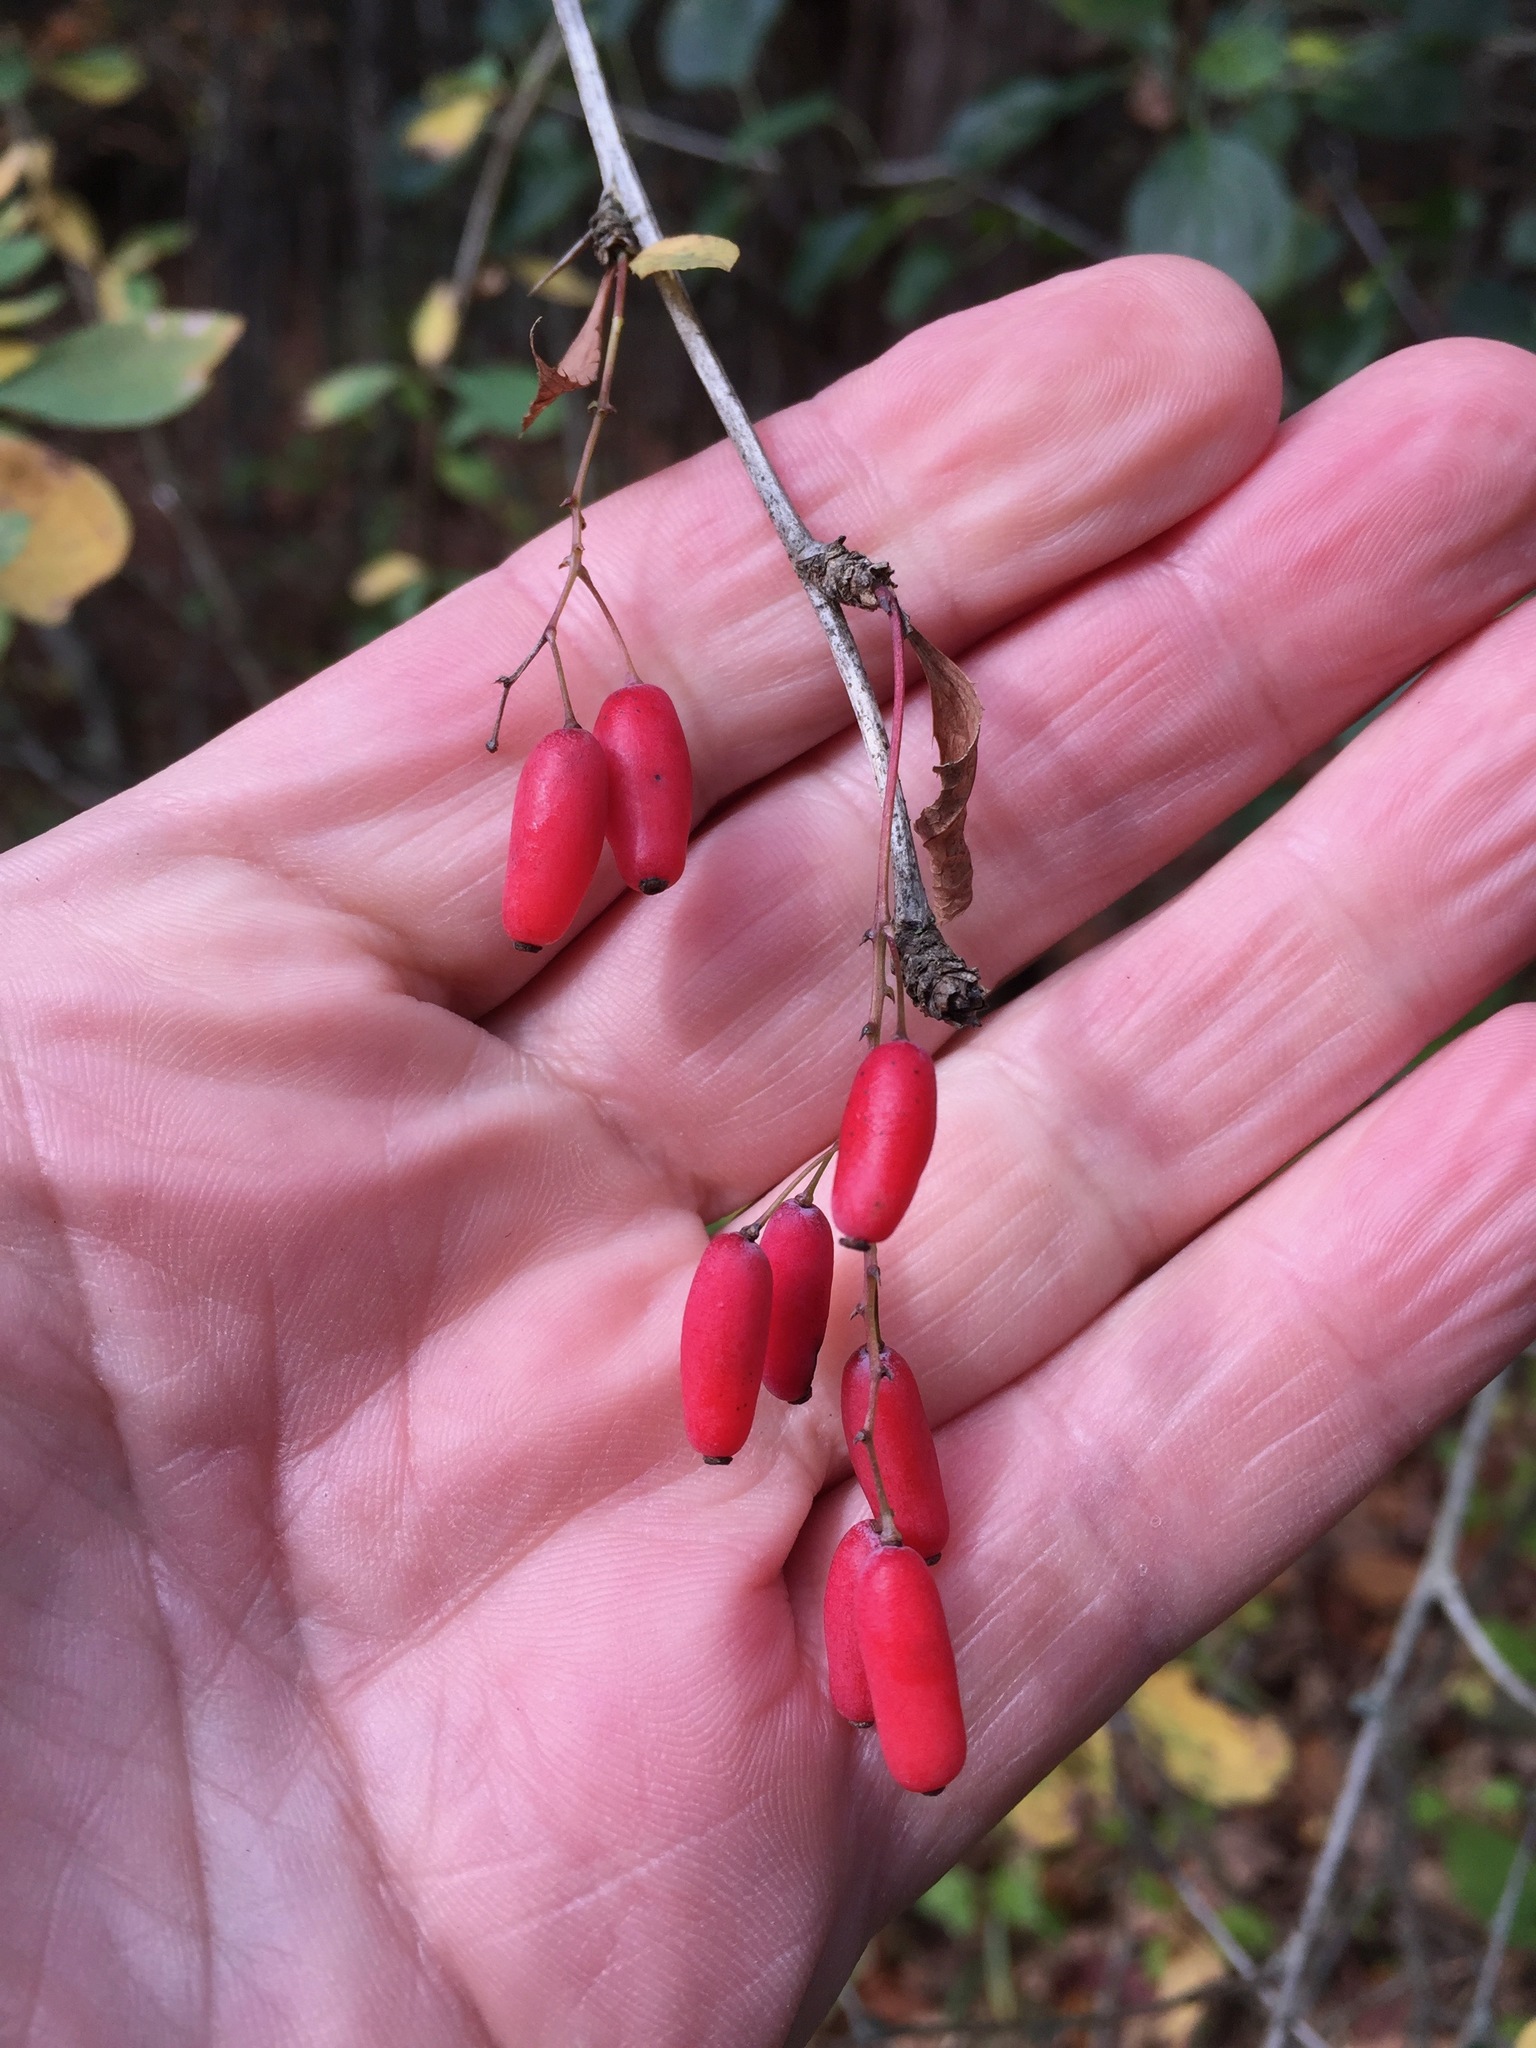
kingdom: Plantae
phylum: Tracheophyta
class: Magnoliopsida
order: Ranunculales
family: Berberidaceae
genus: Berberis
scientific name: Berberis vulgaris
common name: Barberry
